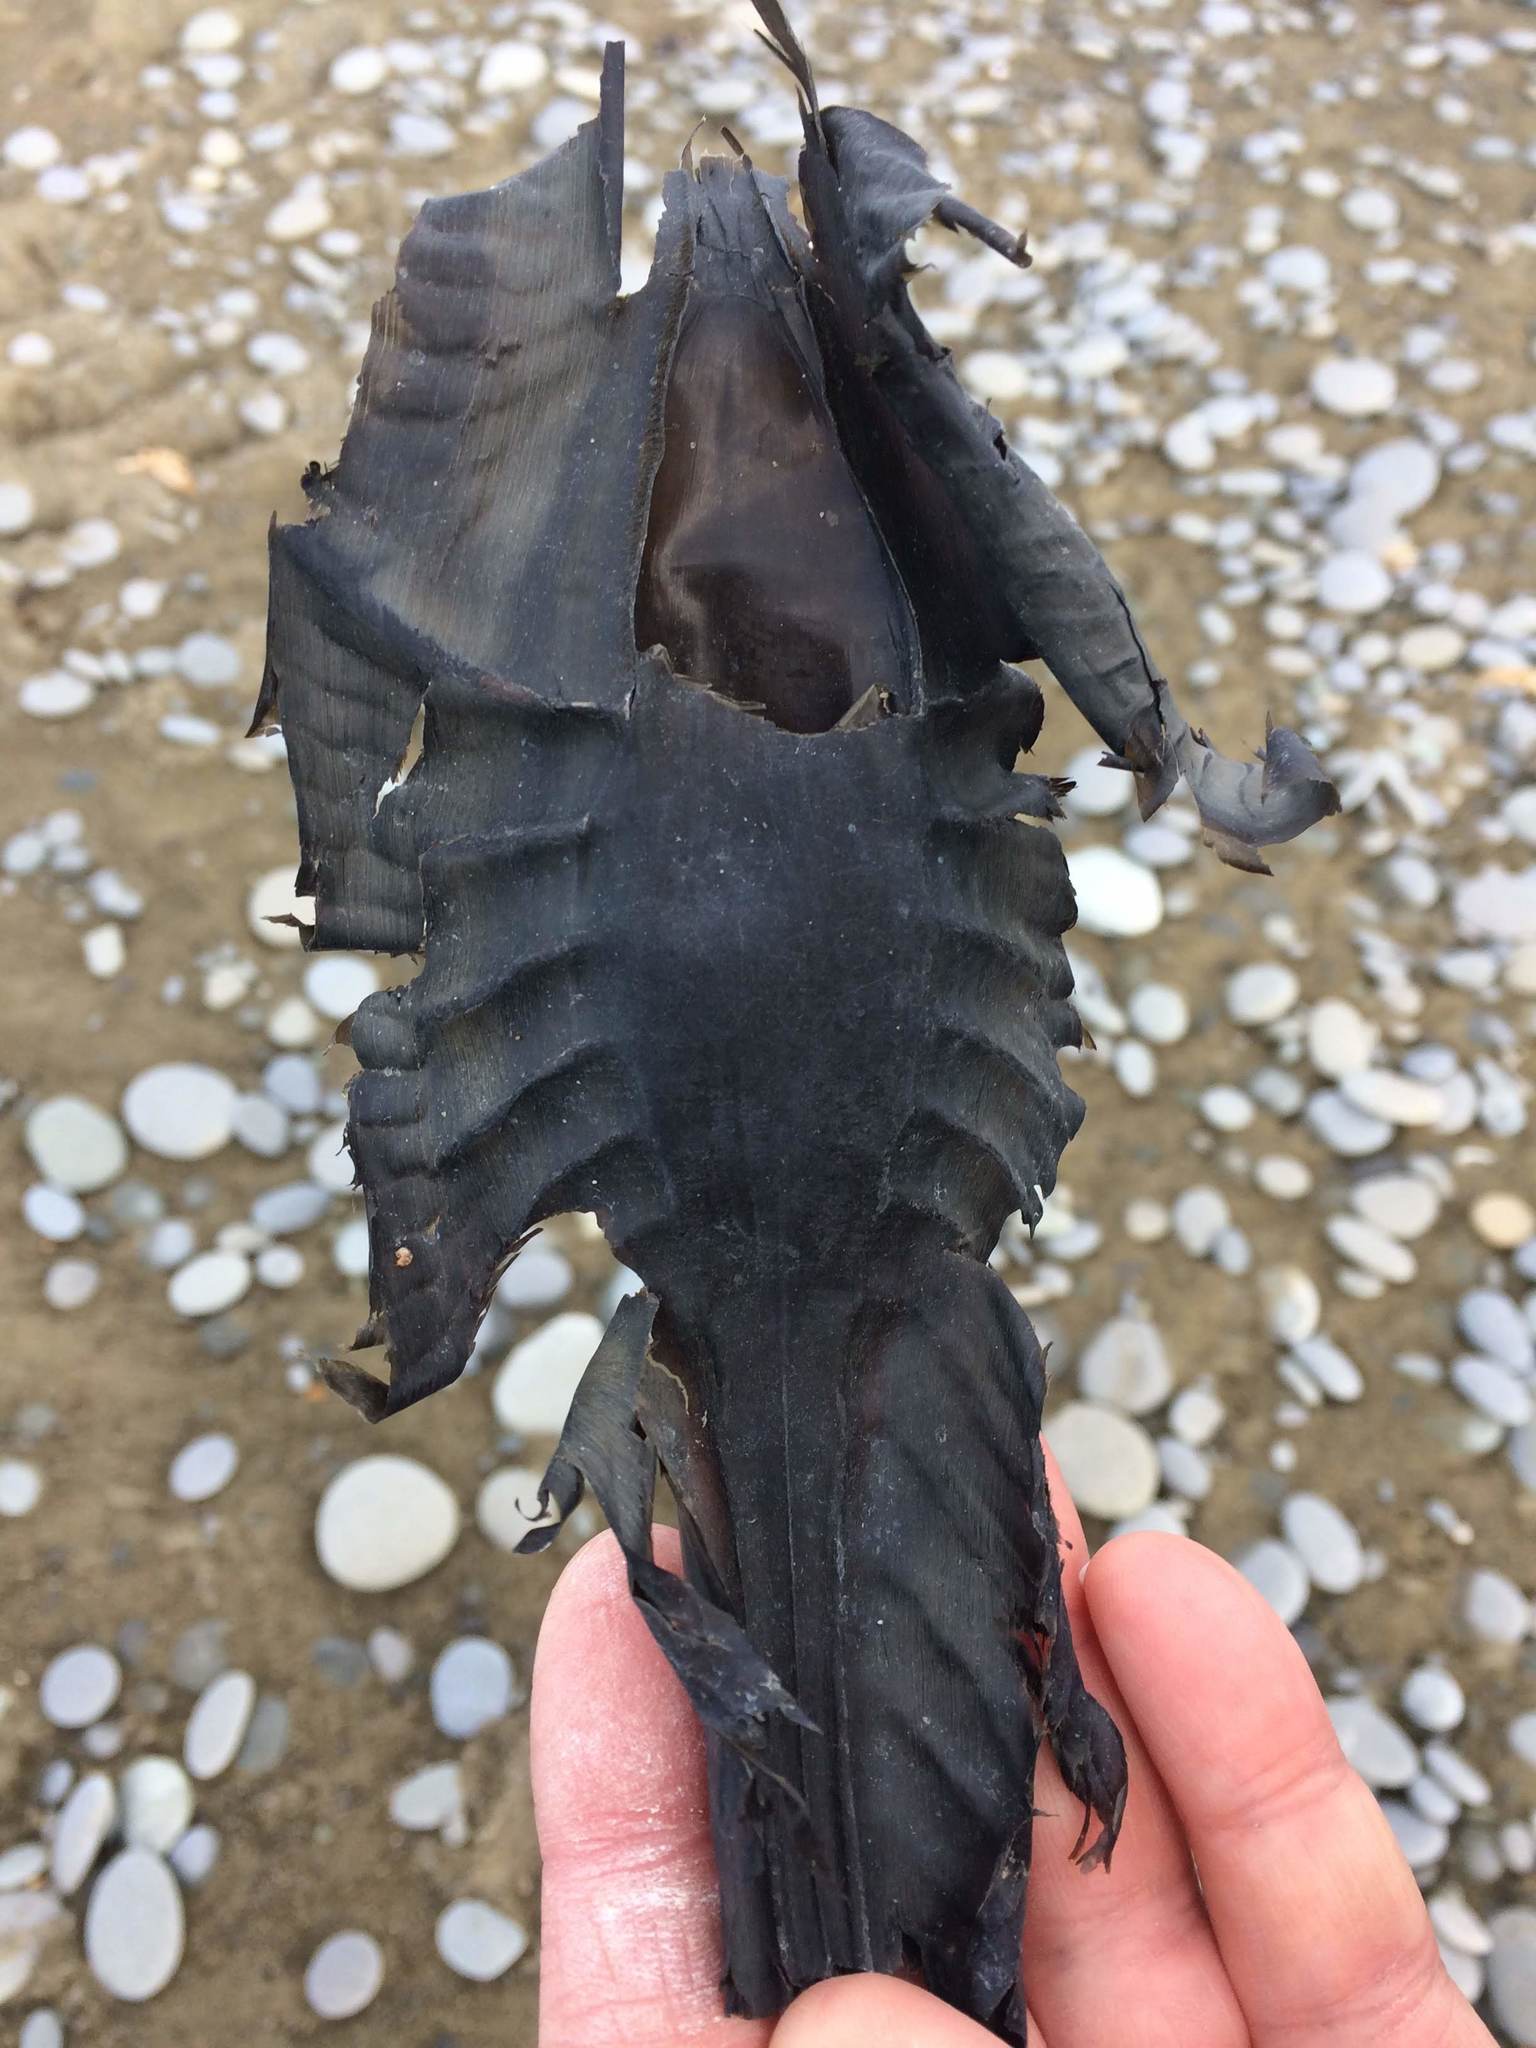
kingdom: Animalia
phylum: Chordata
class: Holocephali
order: Chimaeriformes
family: Callorhinchidae
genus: Callorhinchus
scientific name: Callorhinchus milii
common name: Elephant fish
